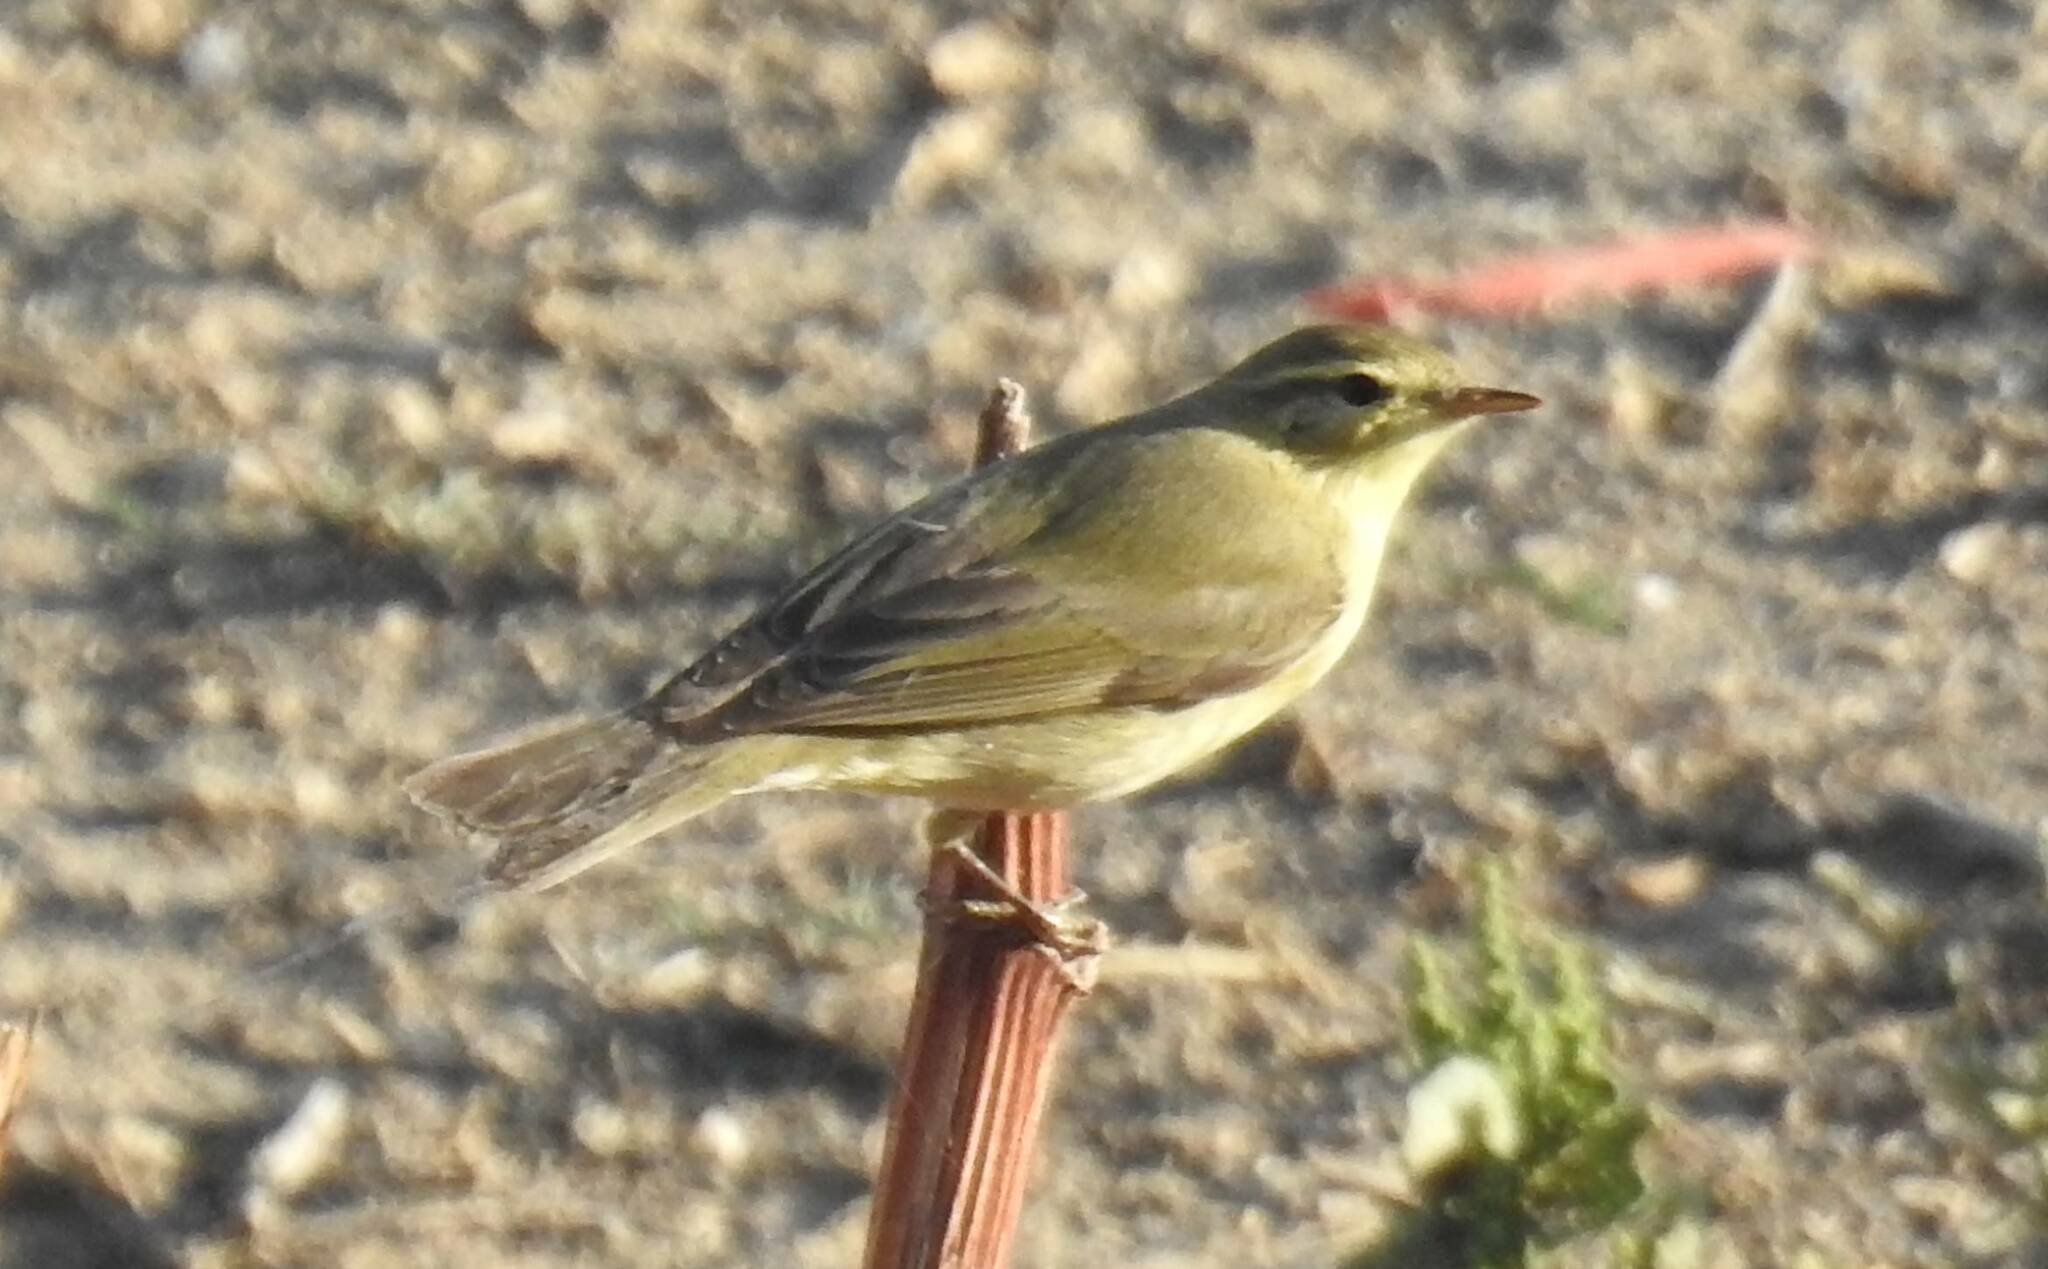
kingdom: Animalia
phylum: Chordata
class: Aves
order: Passeriformes
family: Phylloscopidae
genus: Phylloscopus
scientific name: Phylloscopus trochilus
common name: Willow warbler
